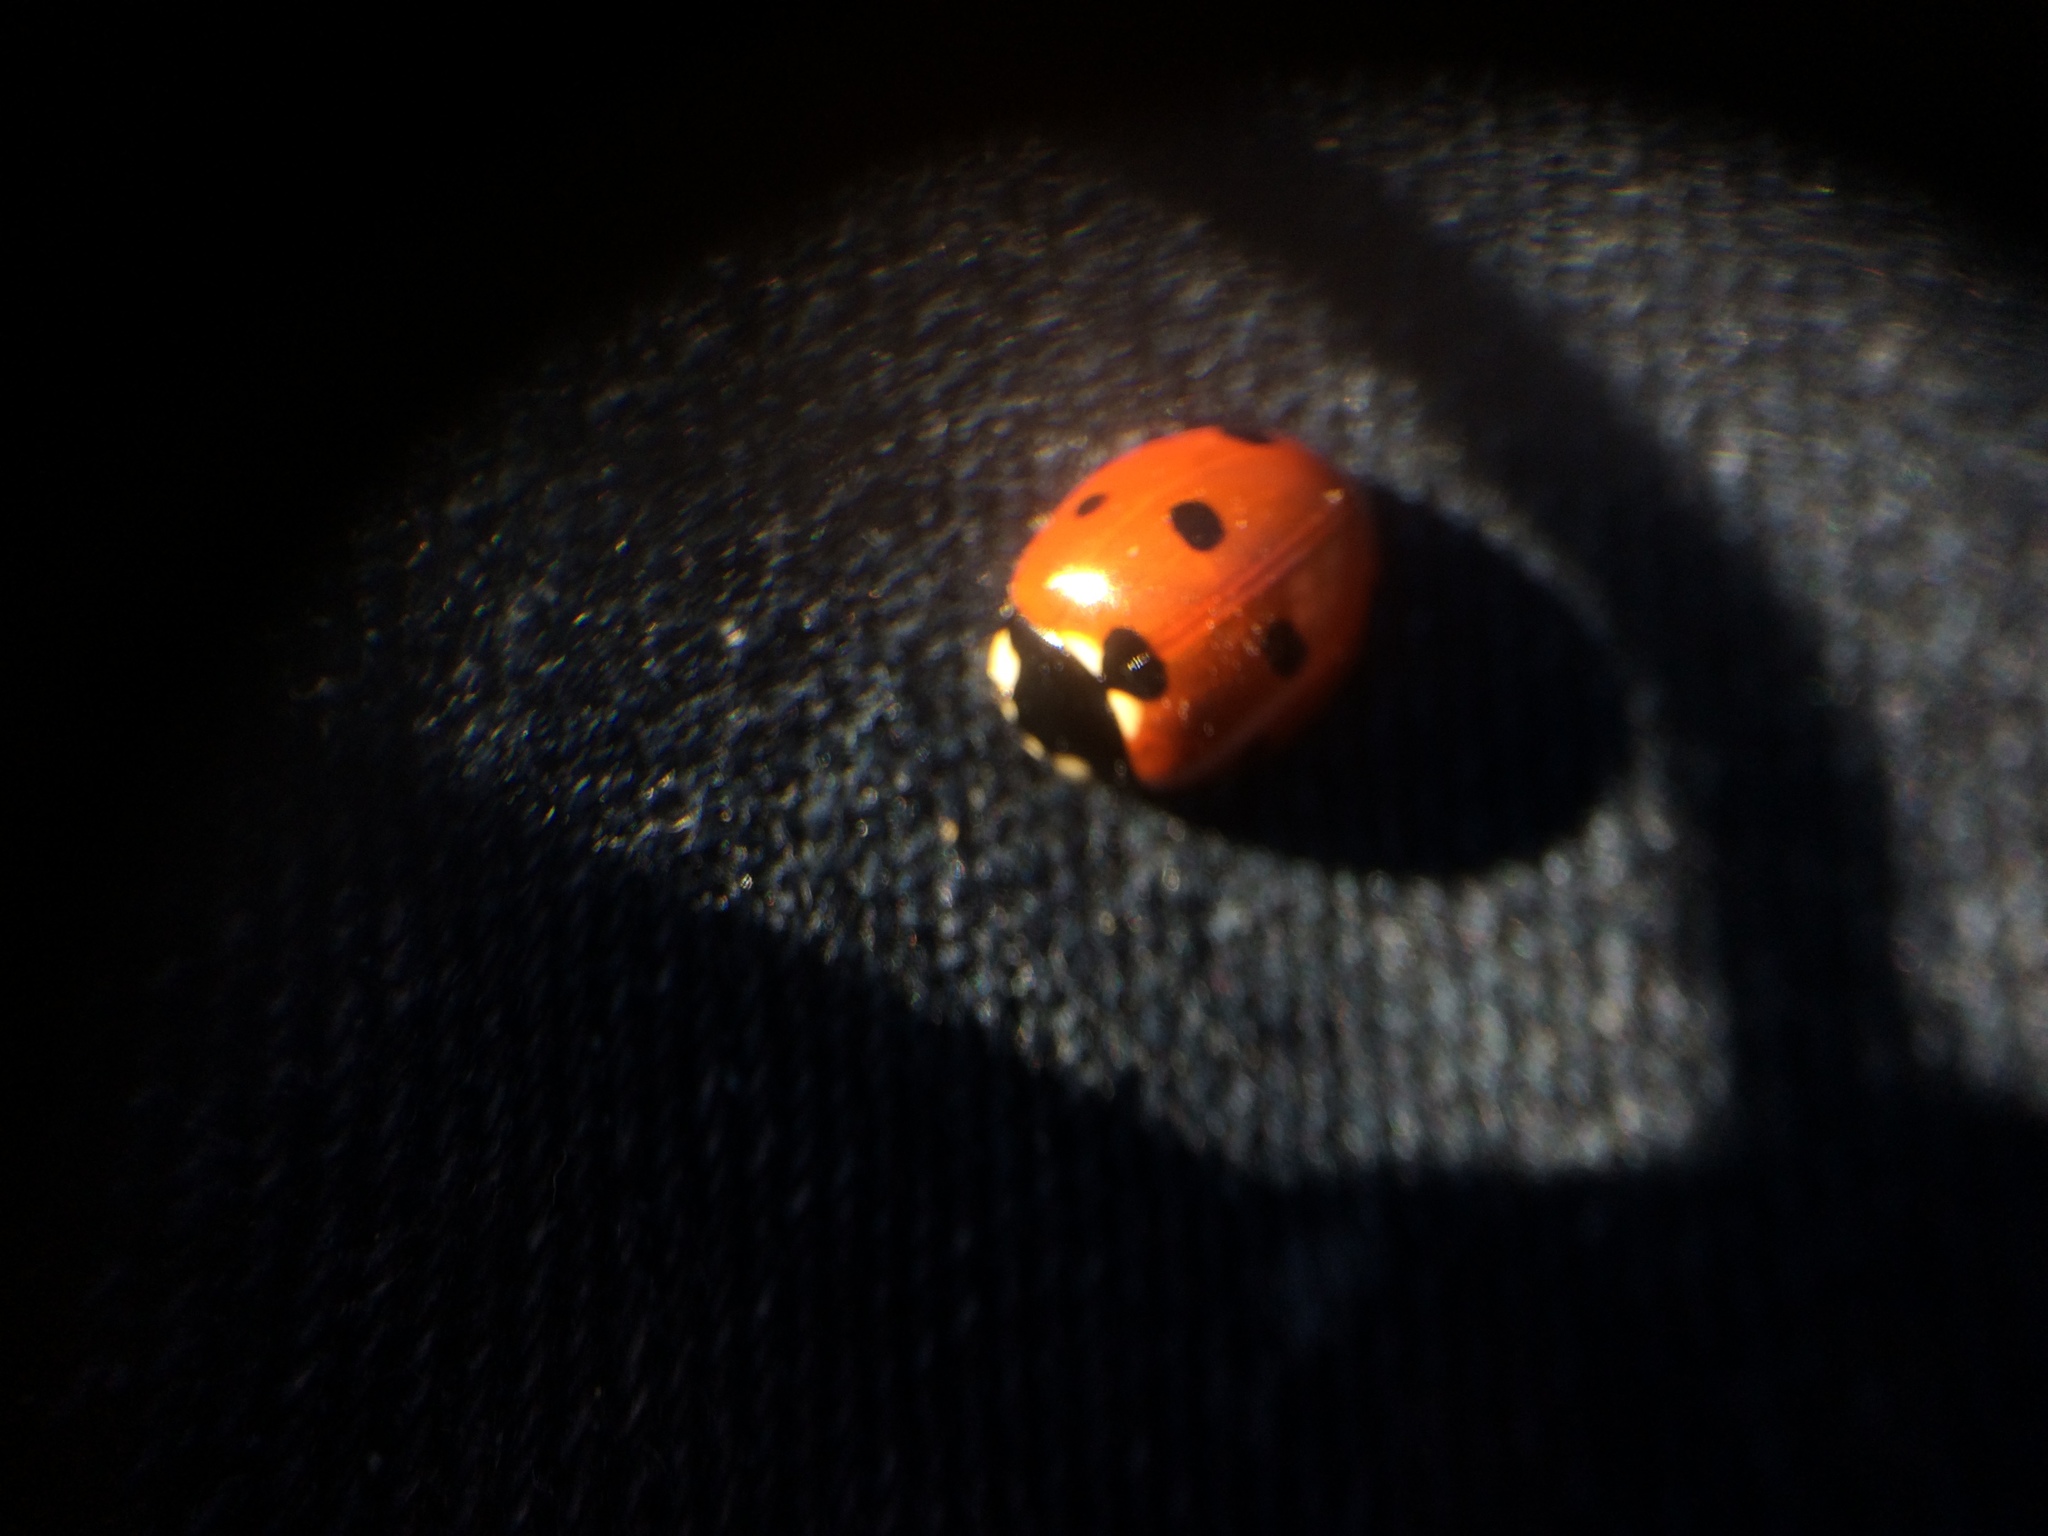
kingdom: Animalia
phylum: Arthropoda
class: Insecta
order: Coleoptera
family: Coccinellidae
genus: Coccinella
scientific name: Coccinella septempunctata
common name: Sevenspotted lady beetle
